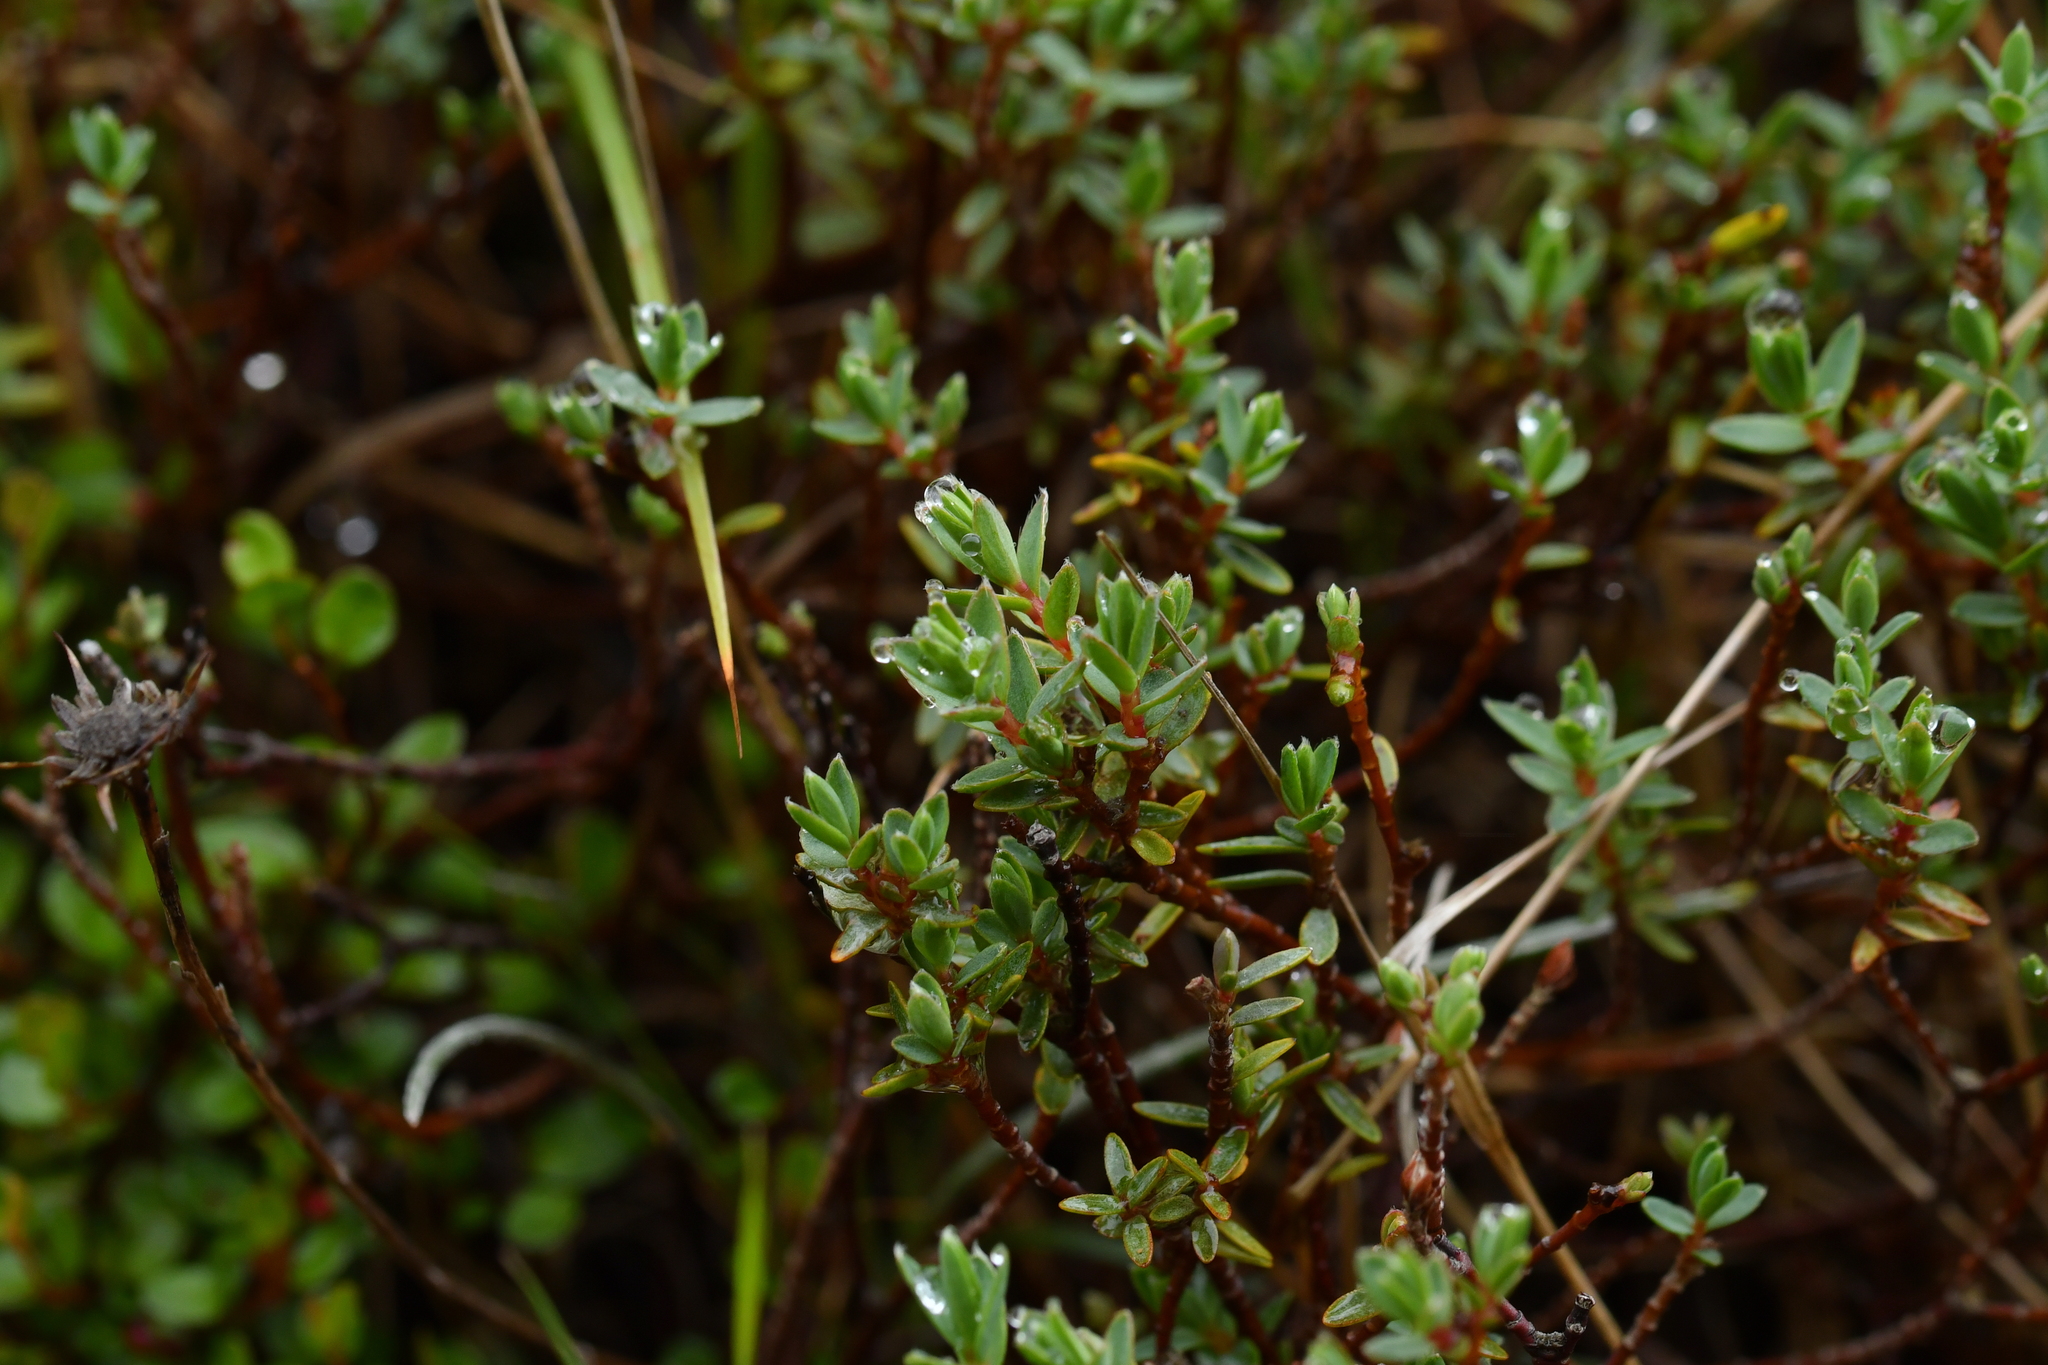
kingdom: Plantae
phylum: Tracheophyta
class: Magnoliopsida
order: Malvales
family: Thymelaeaceae
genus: Pimelea
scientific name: Pimelea oreophila
